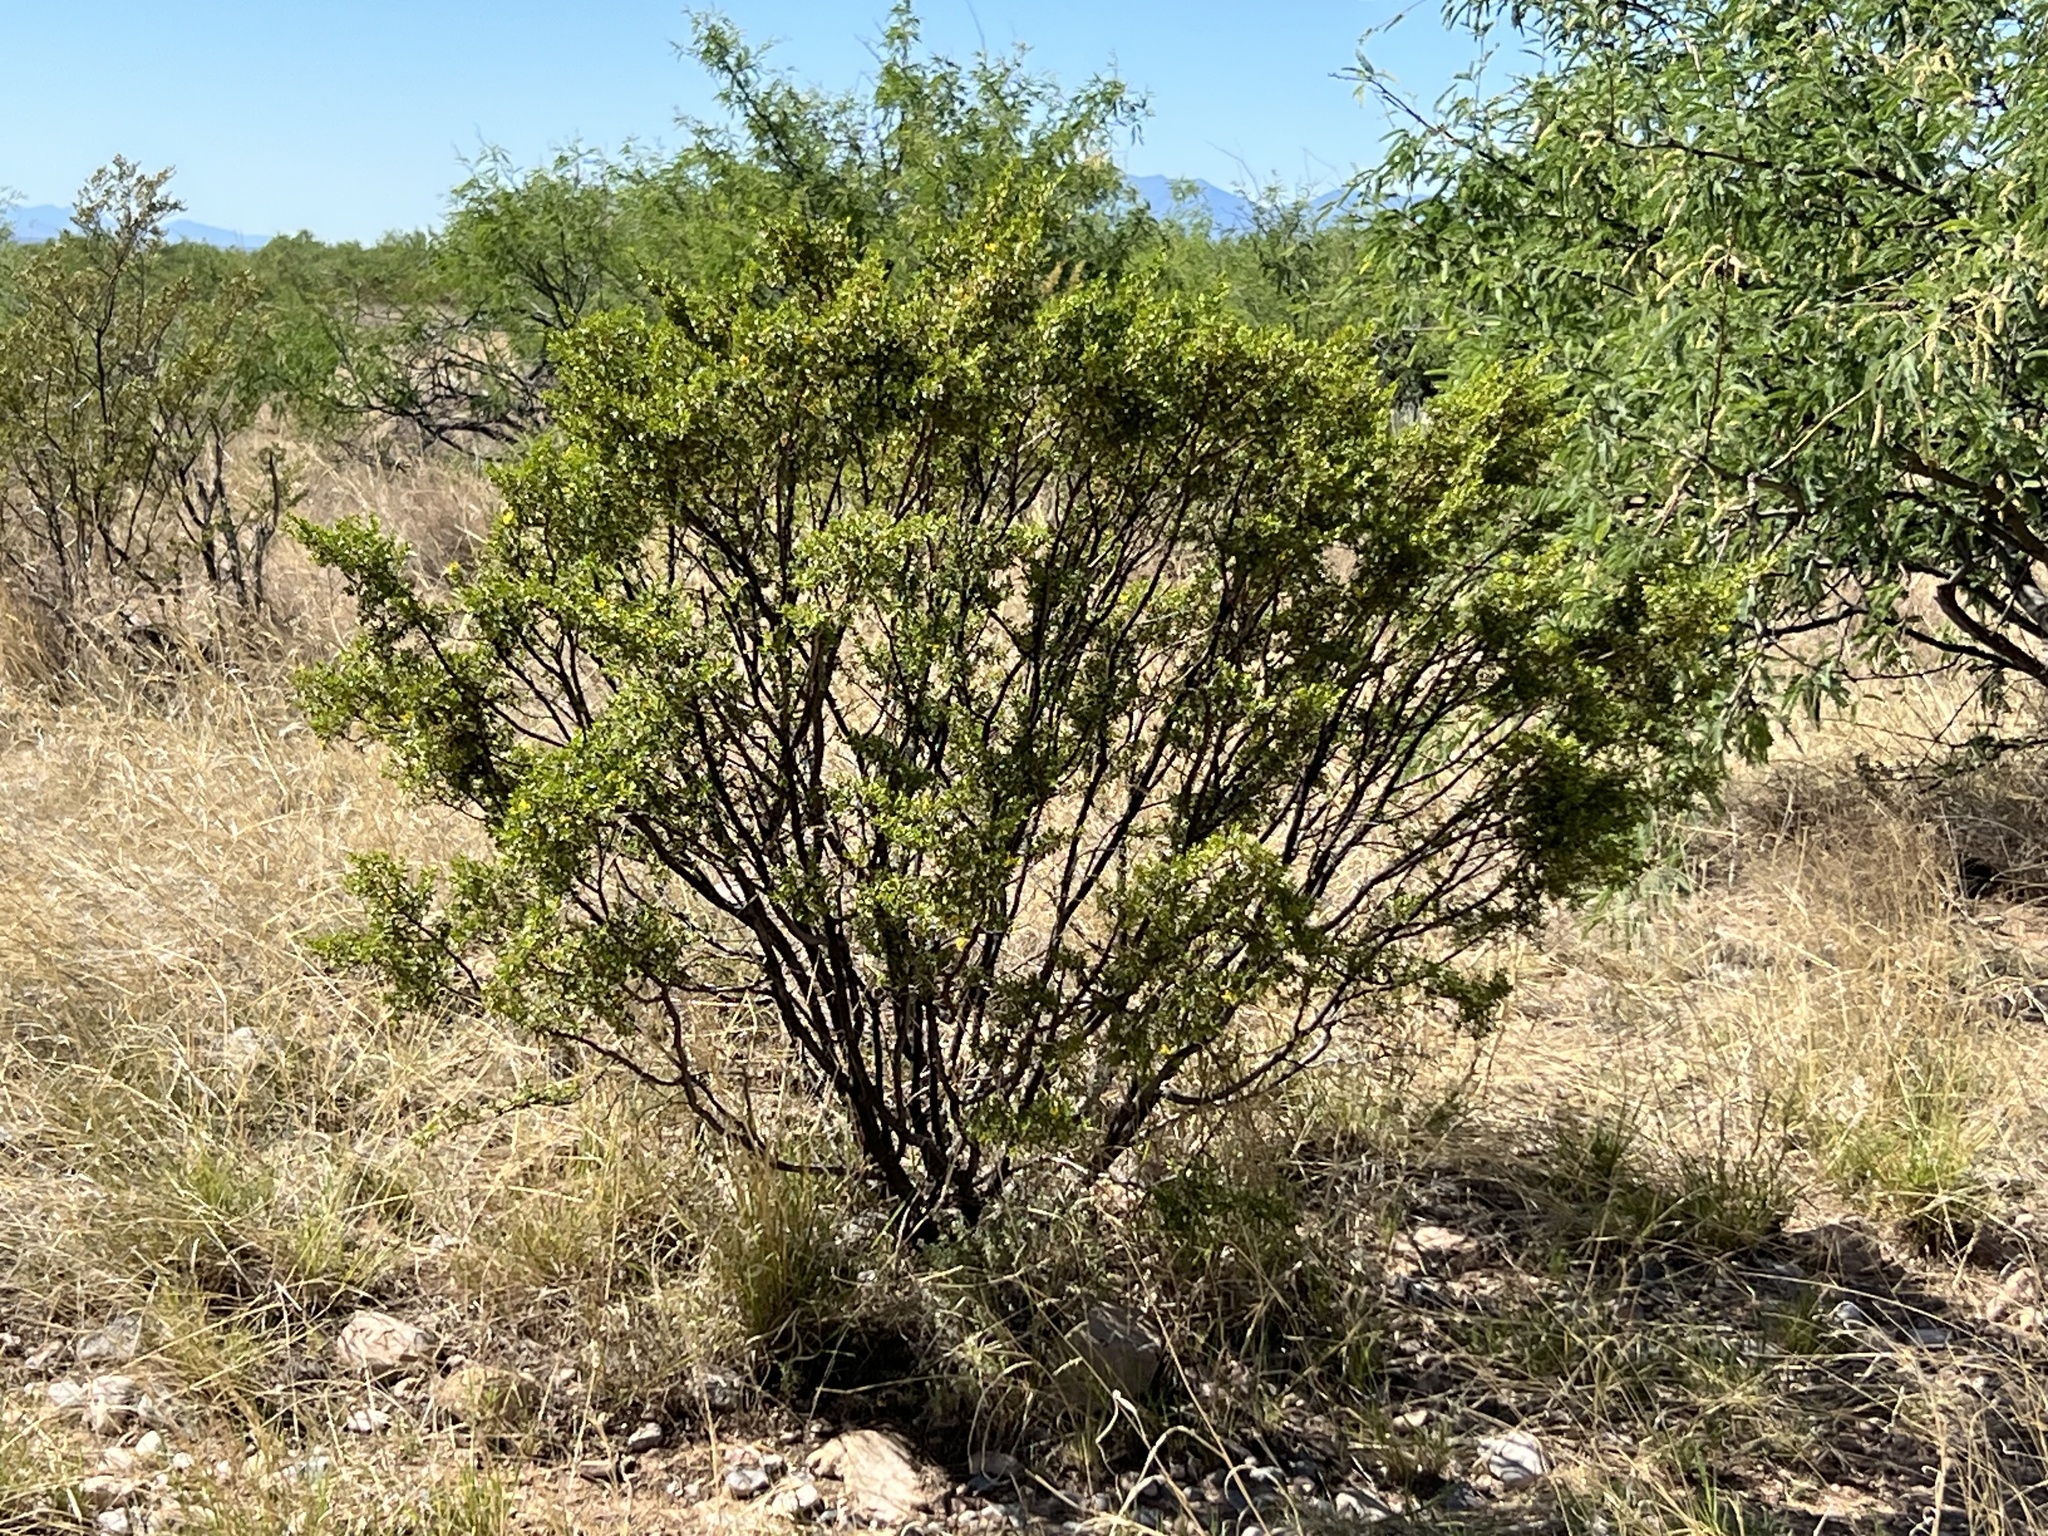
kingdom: Plantae
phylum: Tracheophyta
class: Magnoliopsida
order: Zygophyllales
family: Zygophyllaceae
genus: Larrea
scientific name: Larrea tridentata
